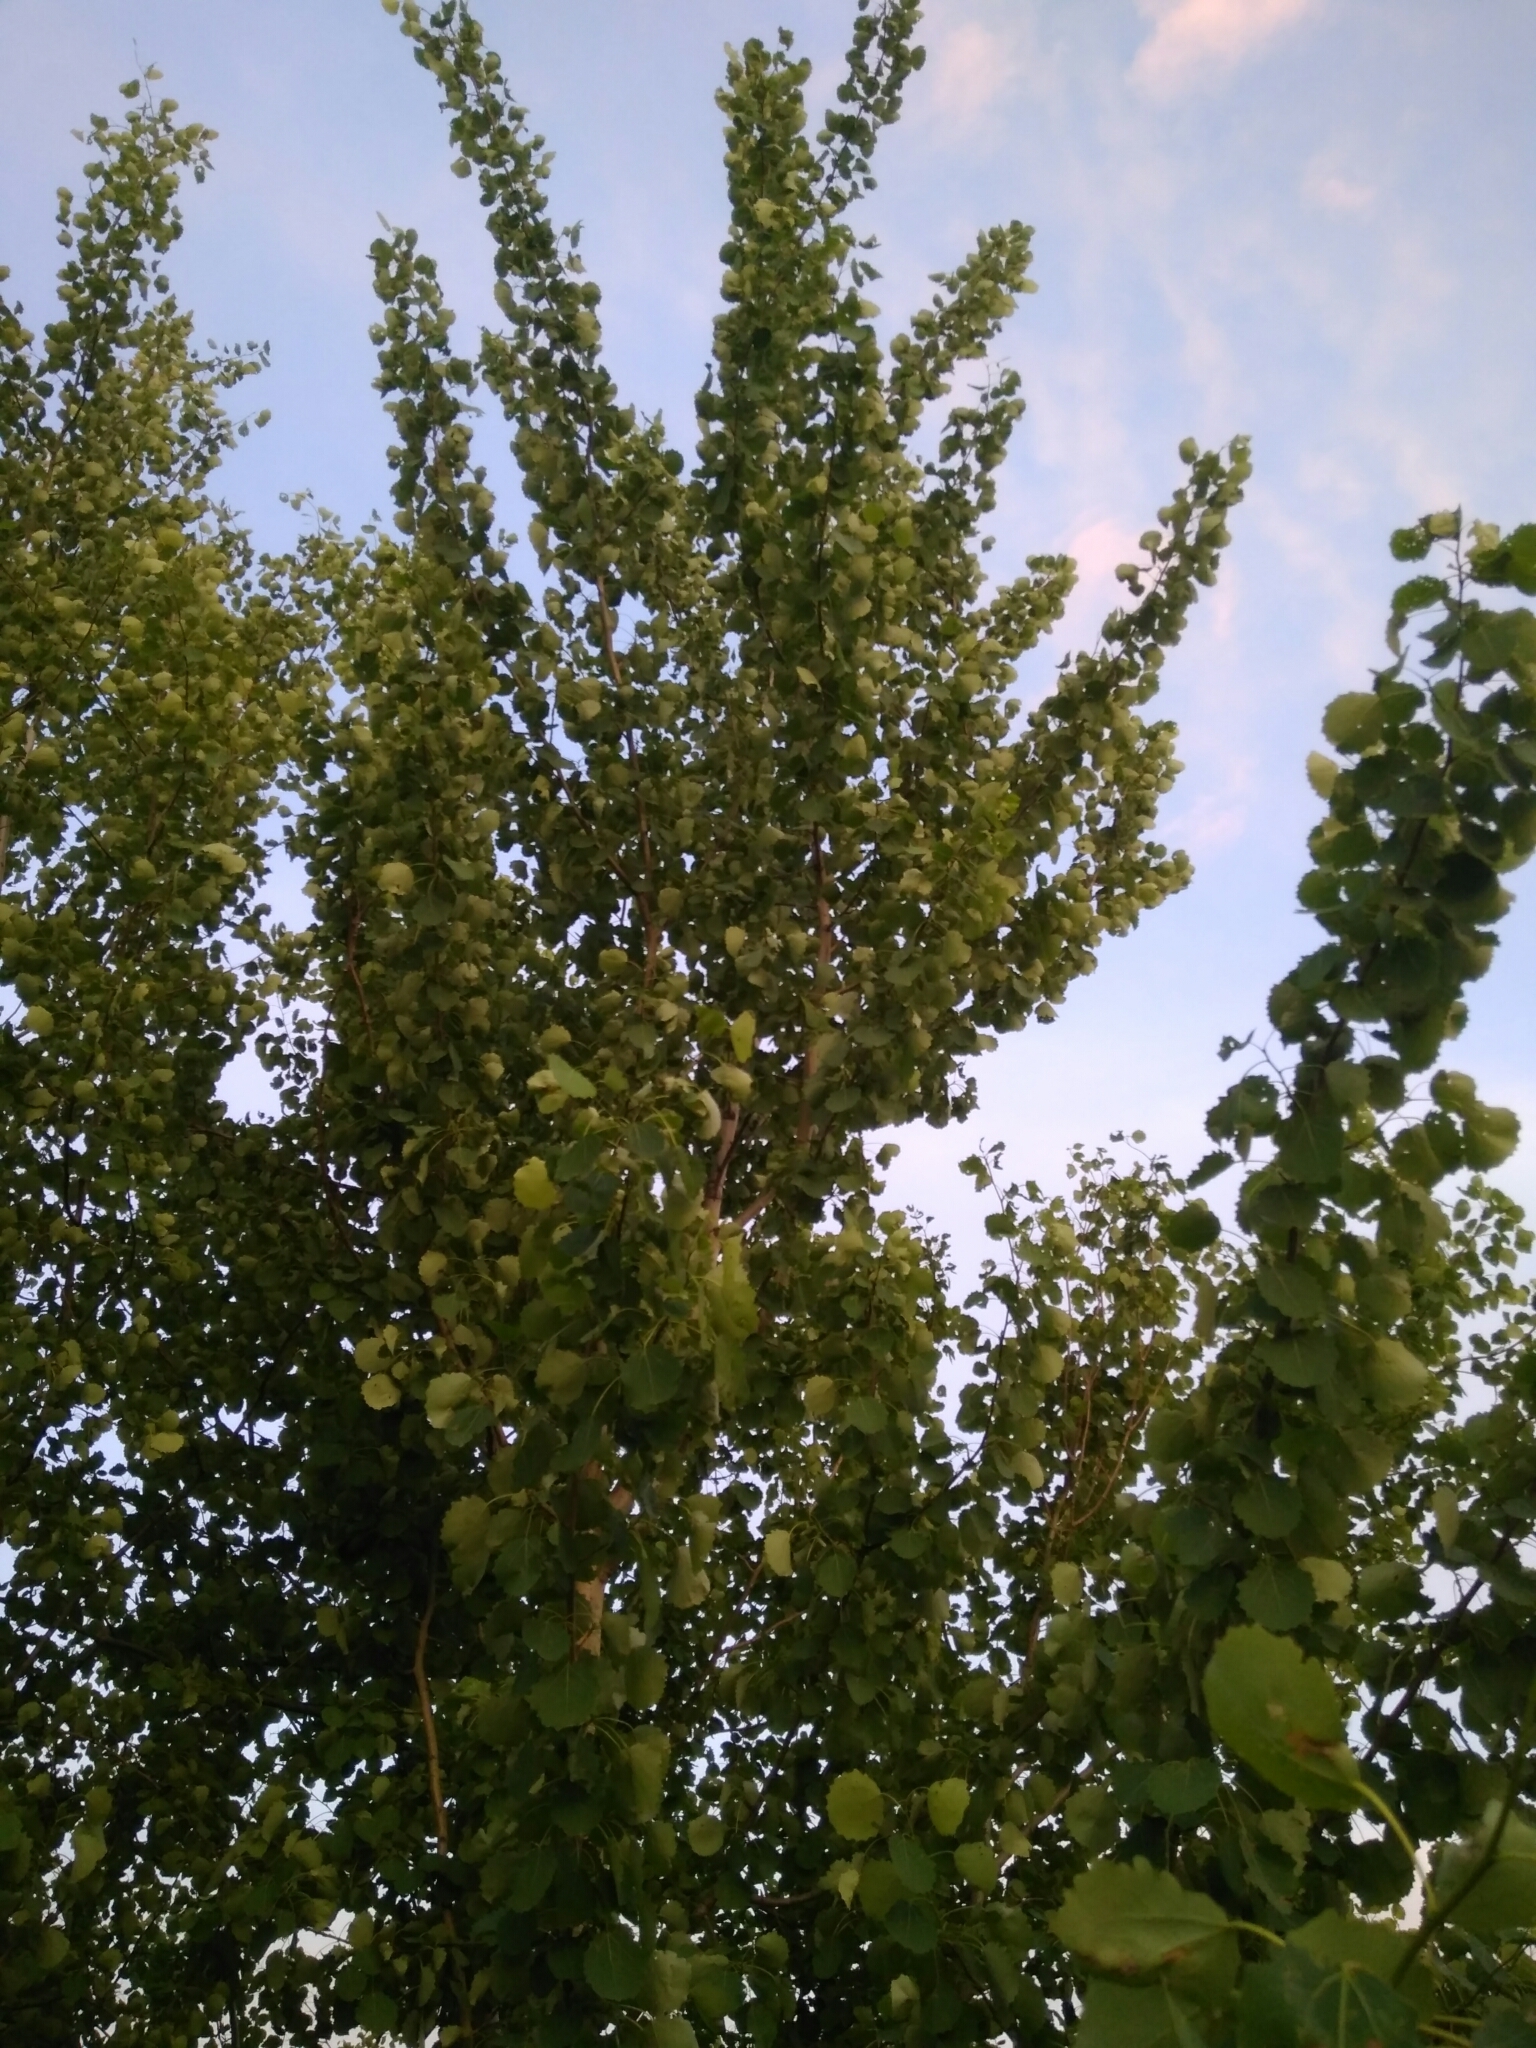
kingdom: Plantae
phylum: Tracheophyta
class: Magnoliopsida
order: Malpighiales
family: Salicaceae
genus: Populus
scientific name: Populus tremula
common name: European aspen
